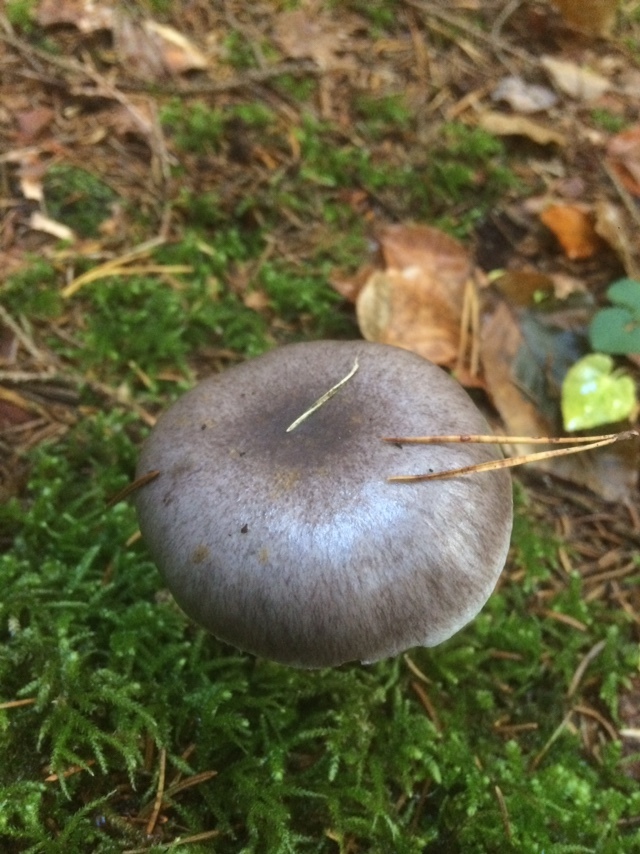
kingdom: Fungi
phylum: Basidiomycota
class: Agaricomycetes
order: Boletales
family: Gomphidiaceae
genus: Gomphidius
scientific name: Gomphidius glutinosus
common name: Slimy spike
